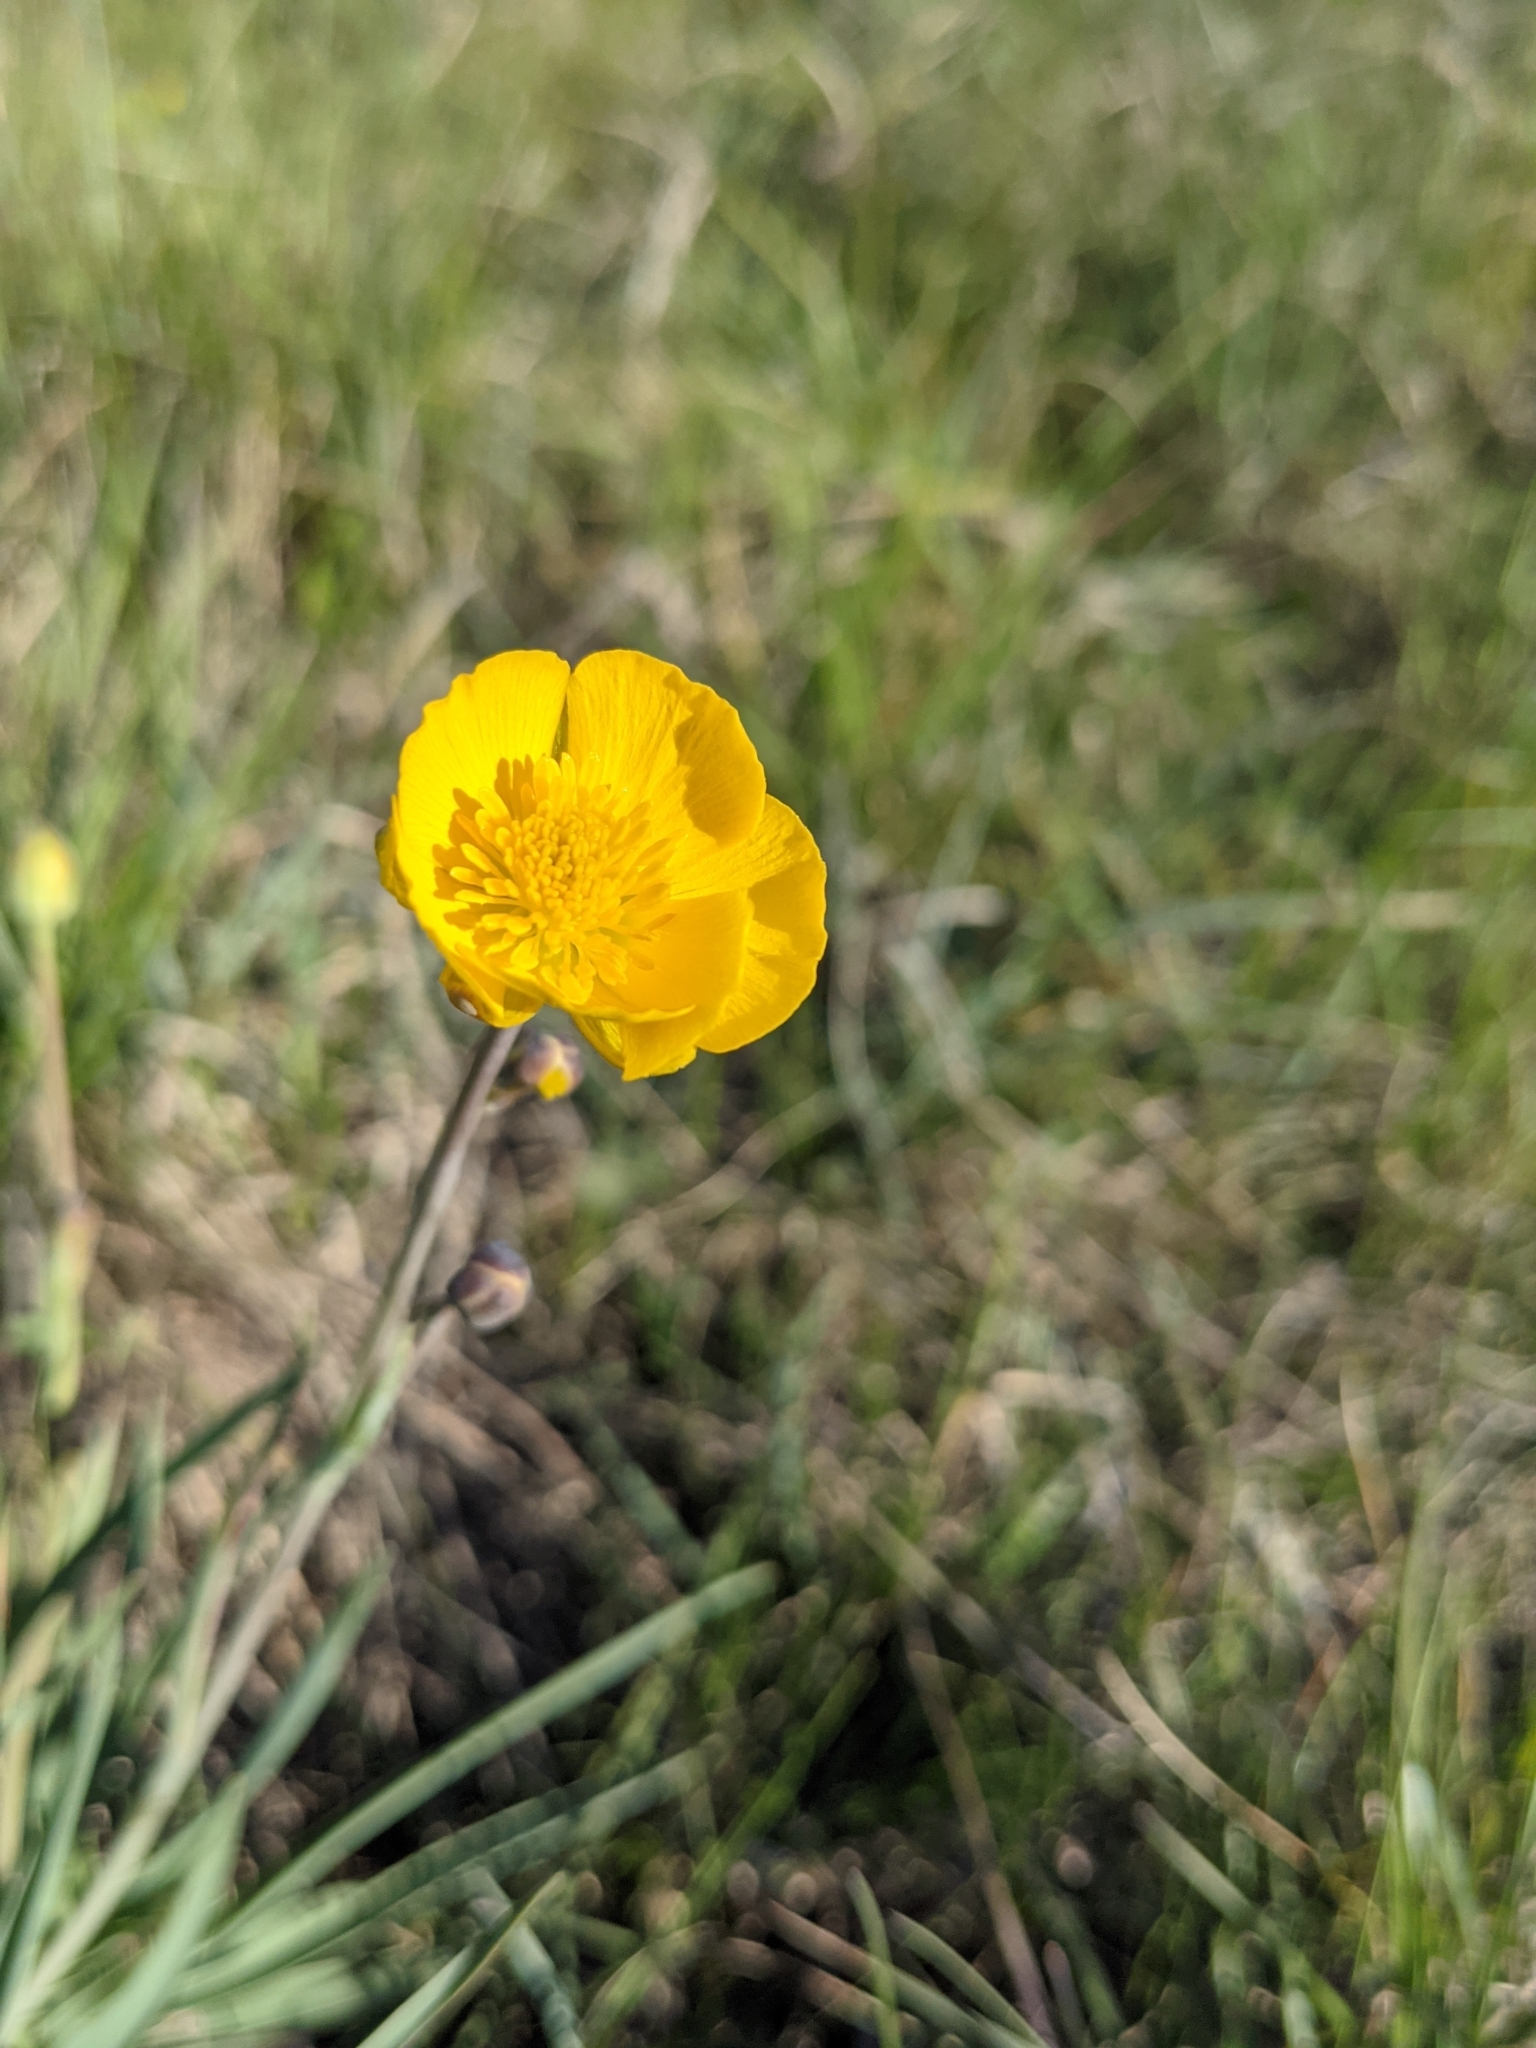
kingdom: Plantae
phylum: Tracheophyta
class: Magnoliopsida
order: Ranunculales
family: Ranunculaceae
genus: Ranunculus
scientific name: Ranunculus gramineus
